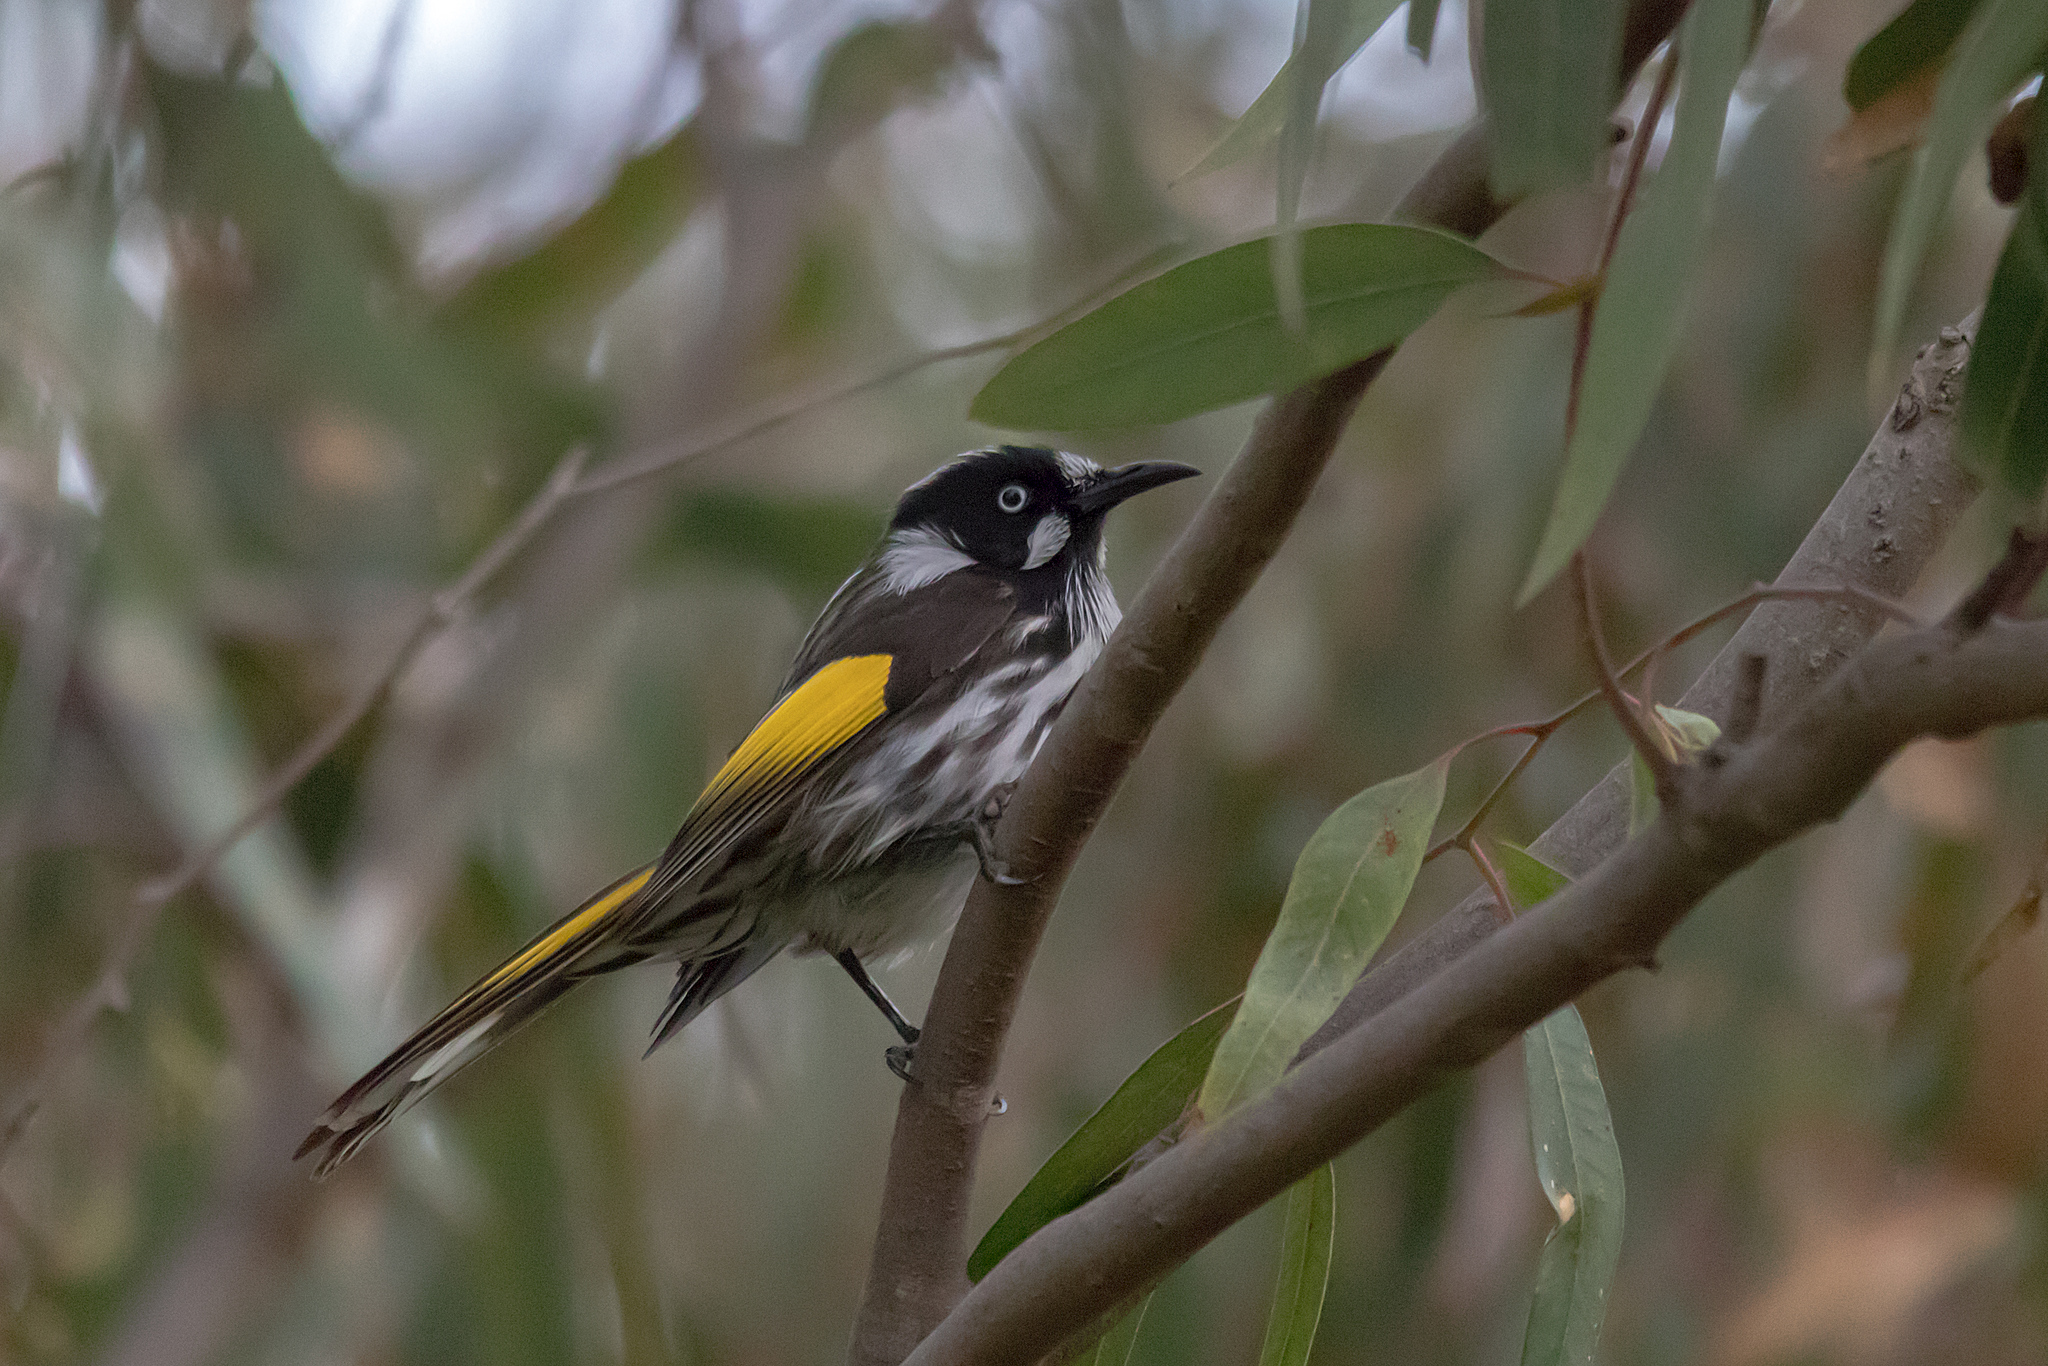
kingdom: Animalia
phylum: Chordata
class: Aves
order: Passeriformes
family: Meliphagidae
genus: Phylidonyris
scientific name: Phylidonyris novaehollandiae
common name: New holland honeyeater
